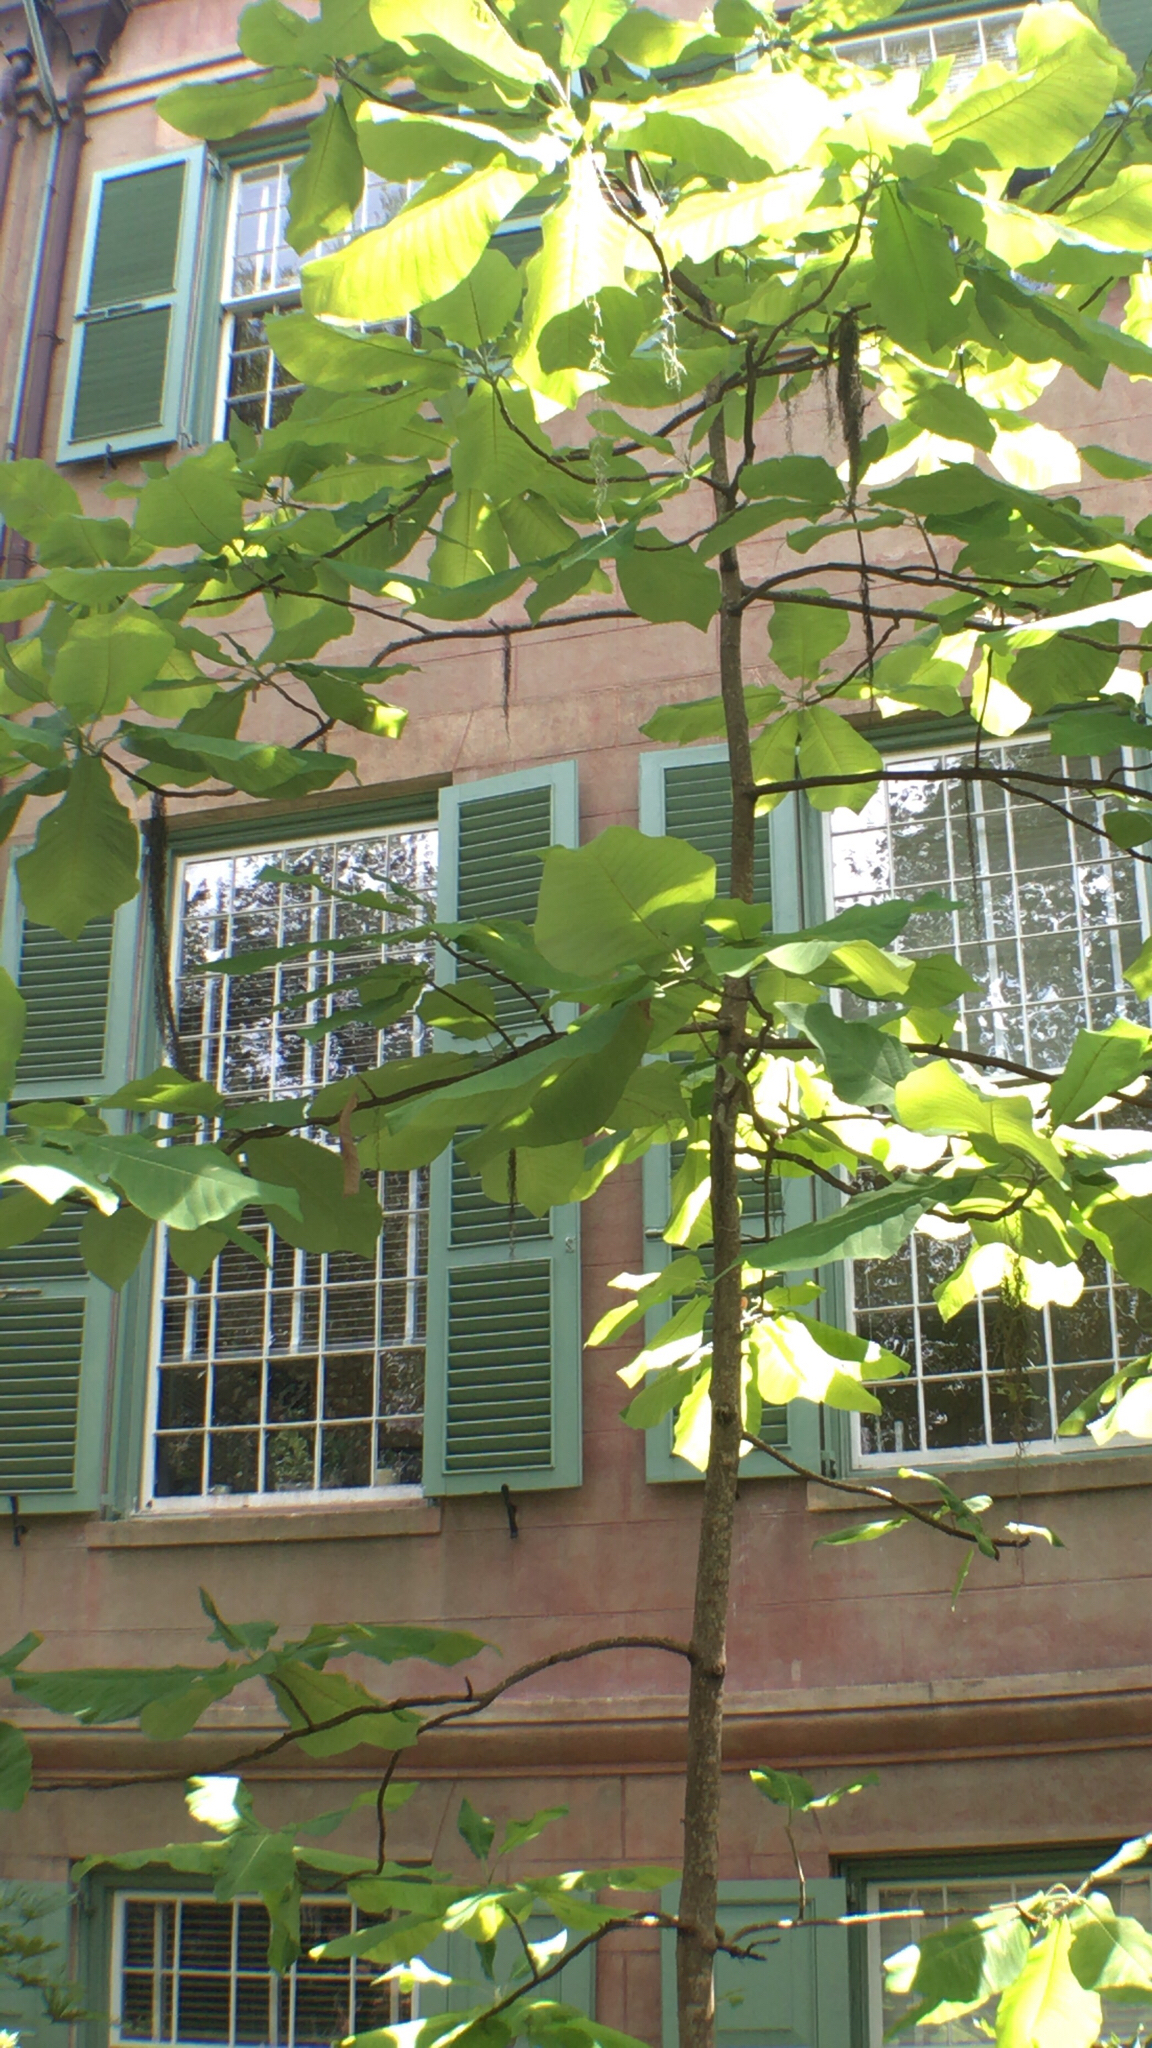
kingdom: Plantae
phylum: Tracheophyta
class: Magnoliopsida
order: Magnoliales
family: Magnoliaceae
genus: Magnolia
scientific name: Magnolia macrophylla
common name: Big-leaf magnolia
